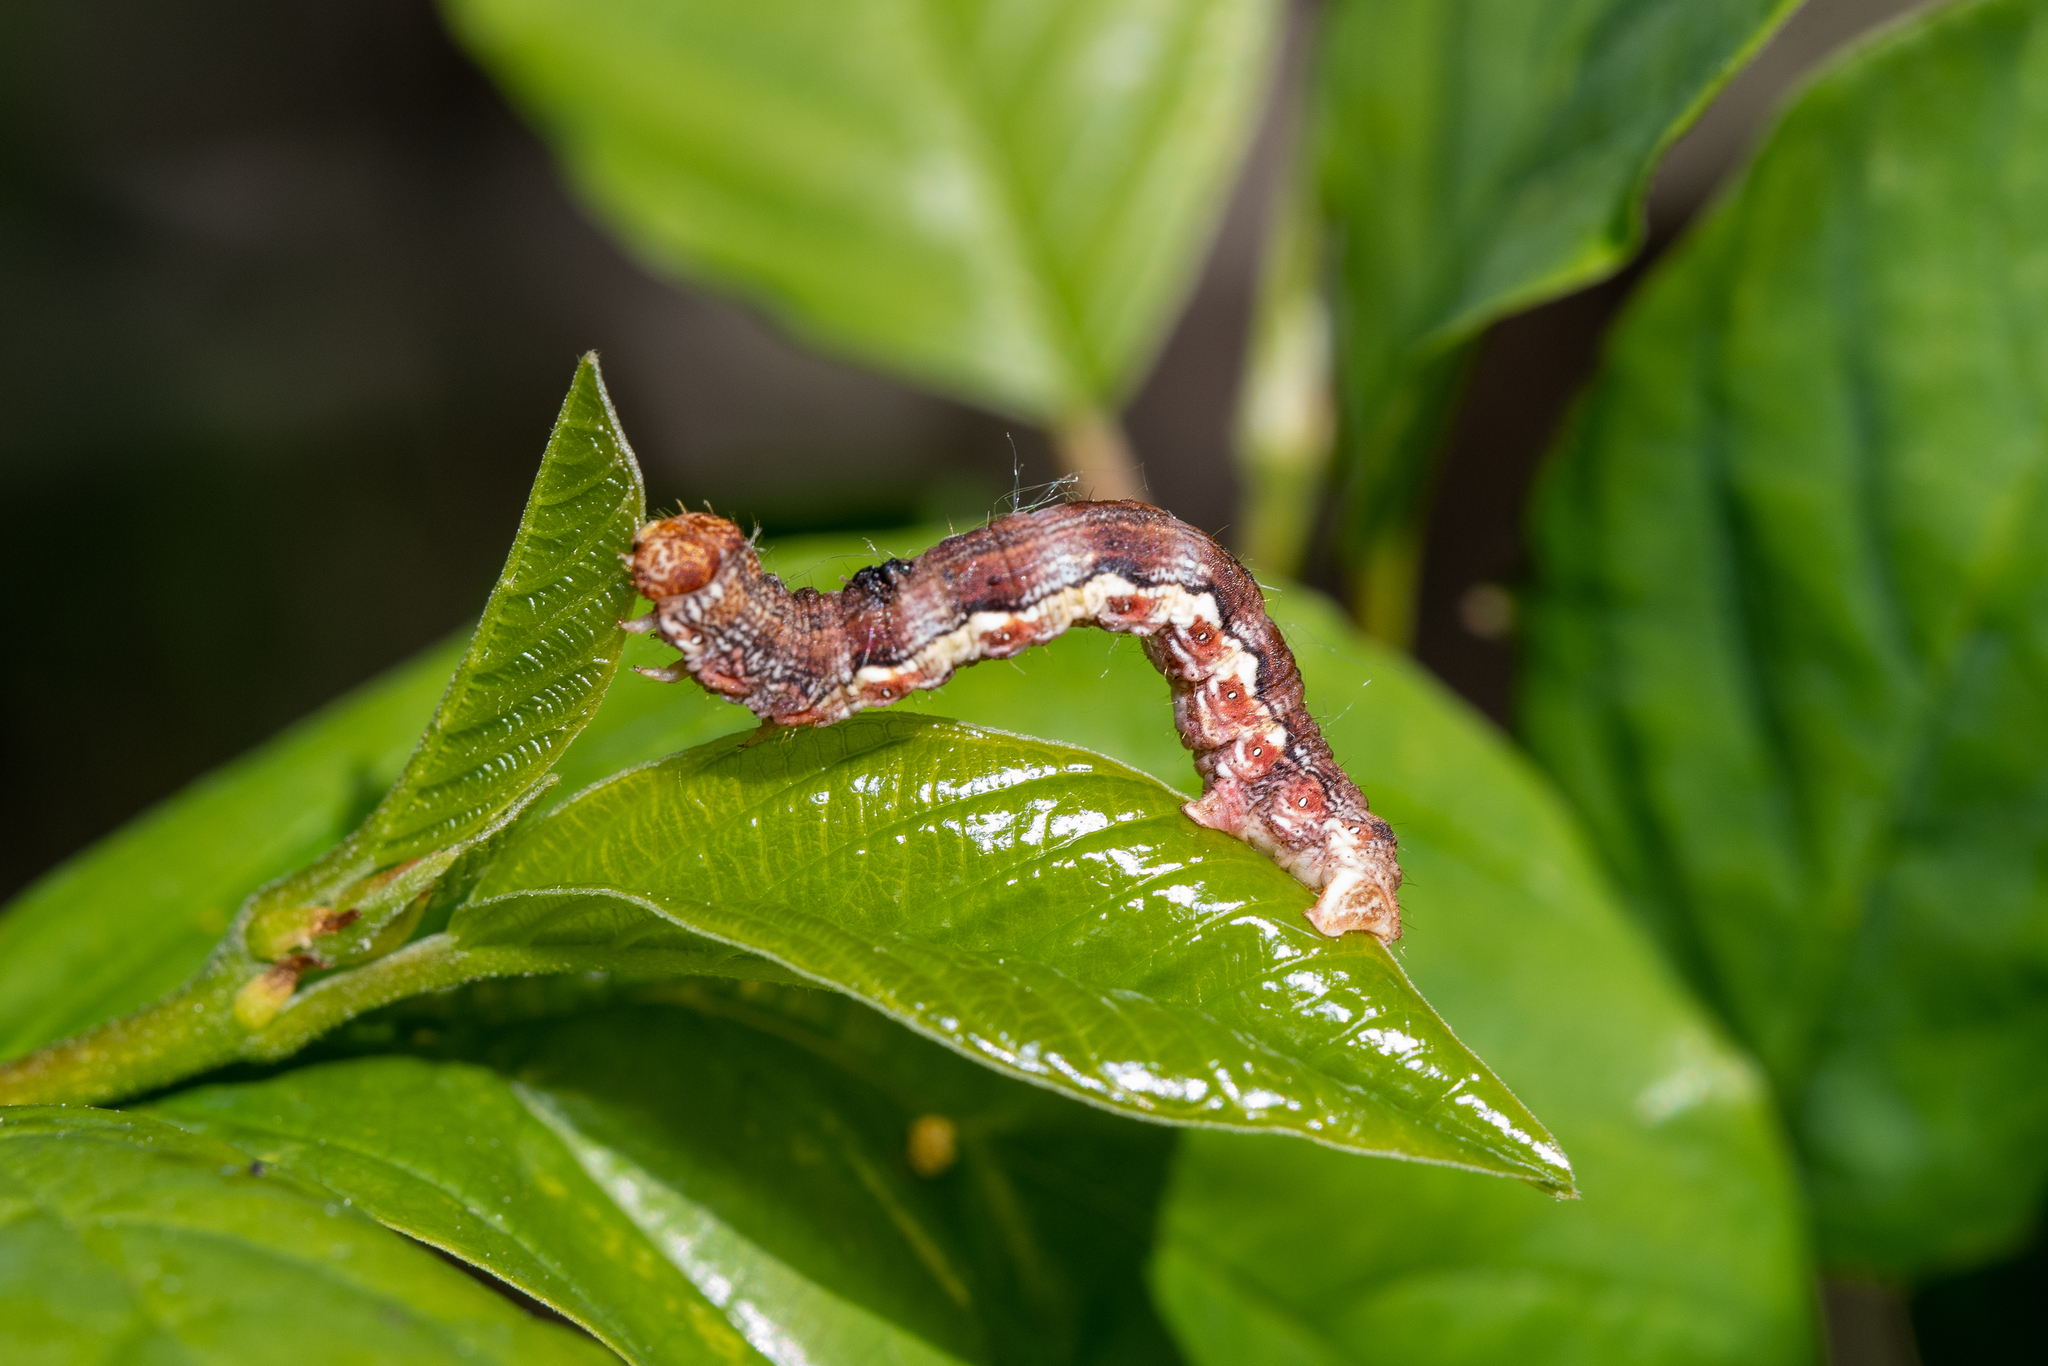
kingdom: Animalia
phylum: Arthropoda
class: Insecta
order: Lepidoptera
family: Geometridae
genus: Erannis
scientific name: Erannis defoliaria
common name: Mottled umber
